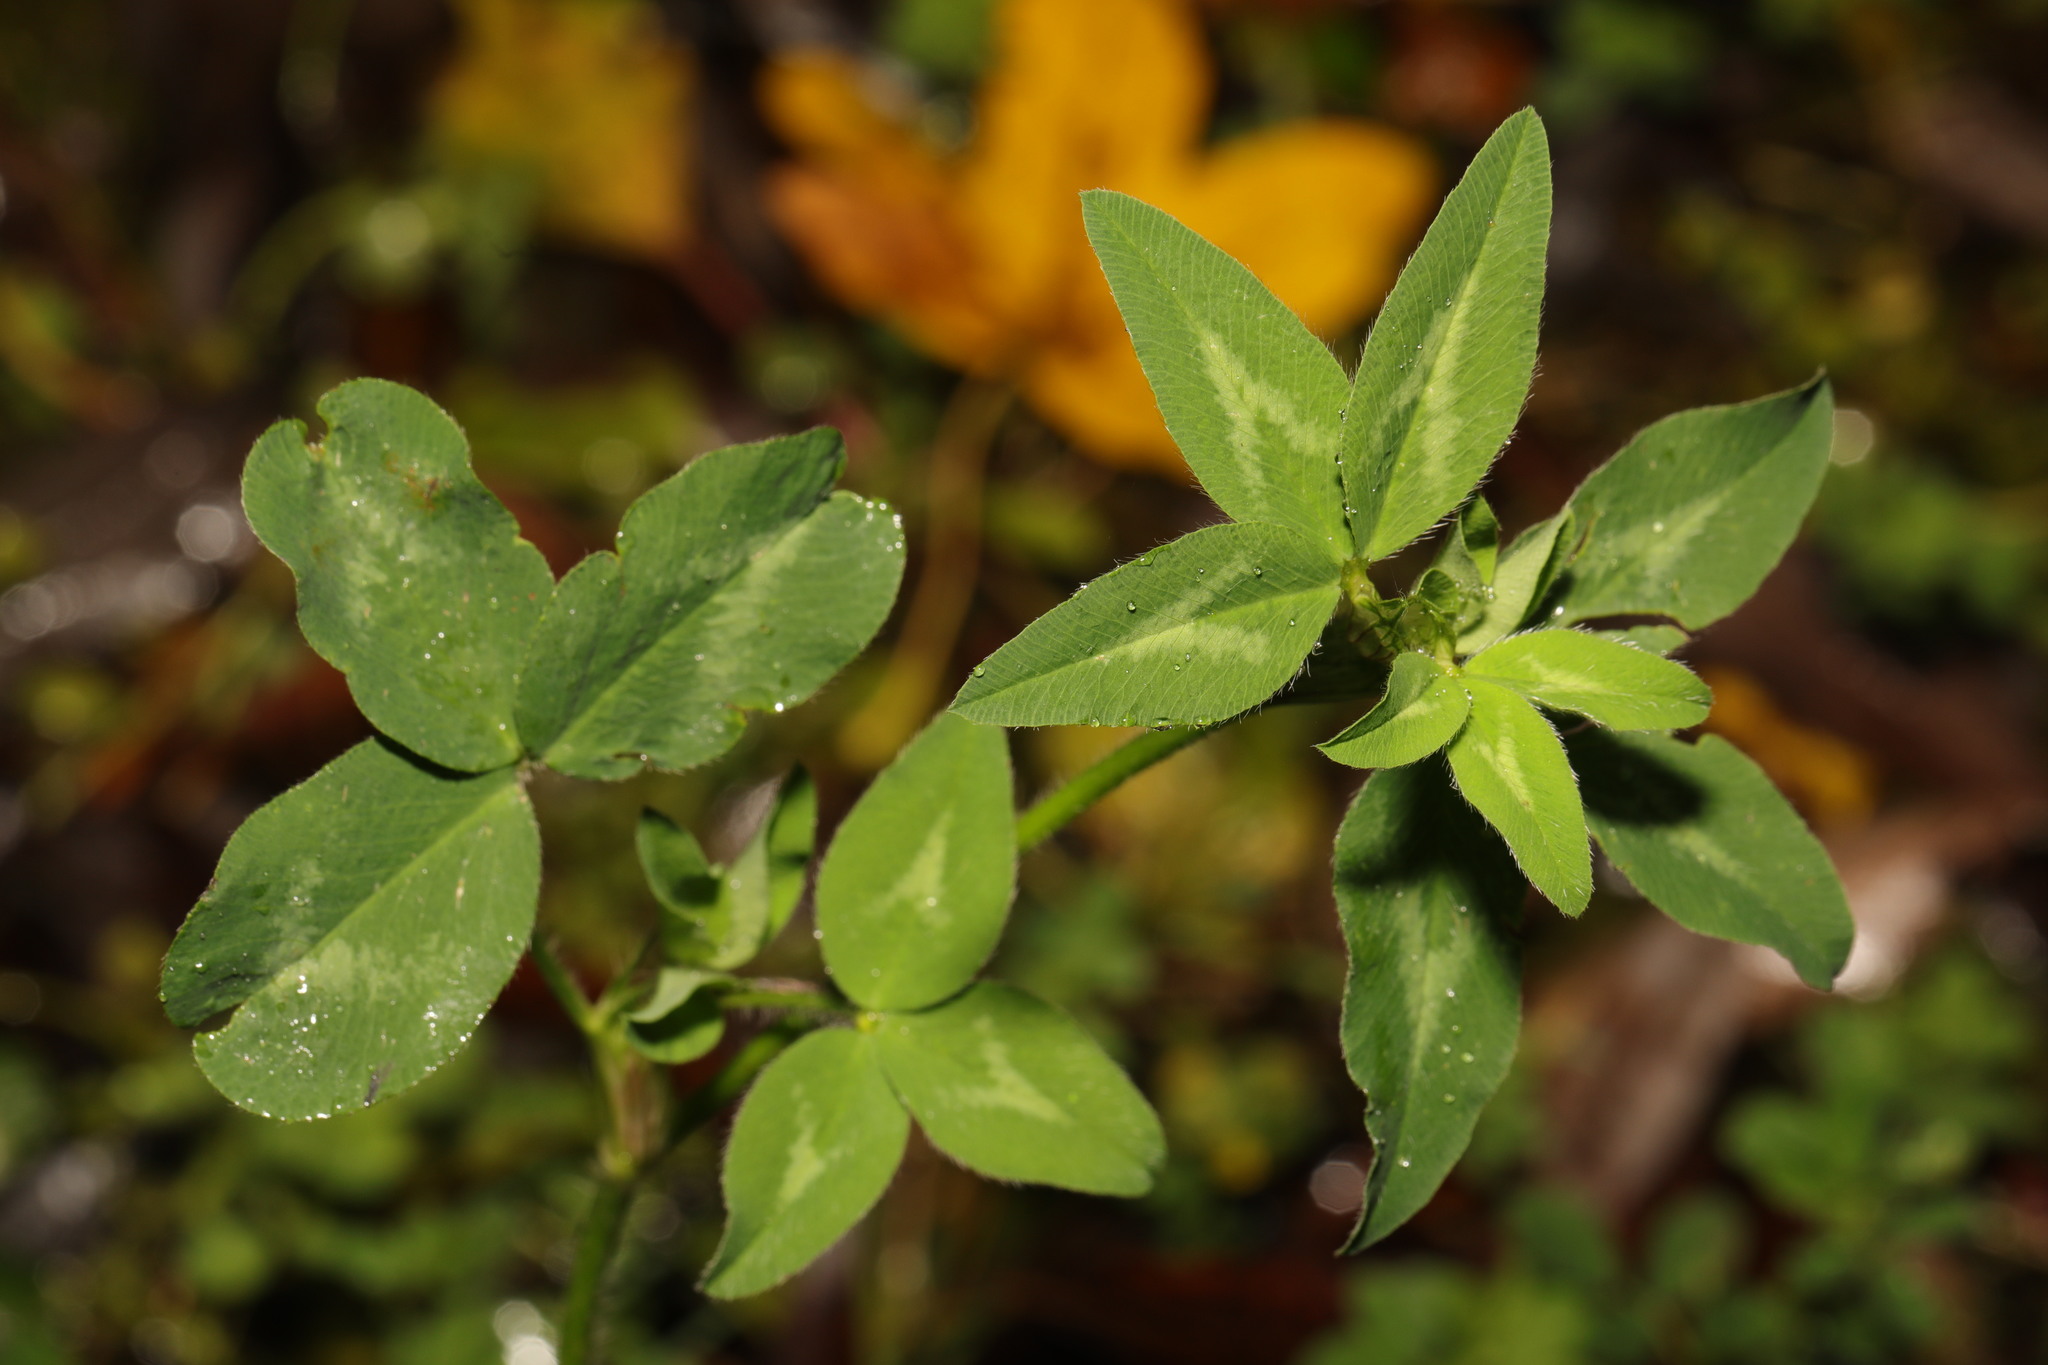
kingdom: Plantae
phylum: Tracheophyta
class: Magnoliopsida
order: Fabales
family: Fabaceae
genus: Trifolium
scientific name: Trifolium pratense
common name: Red clover
